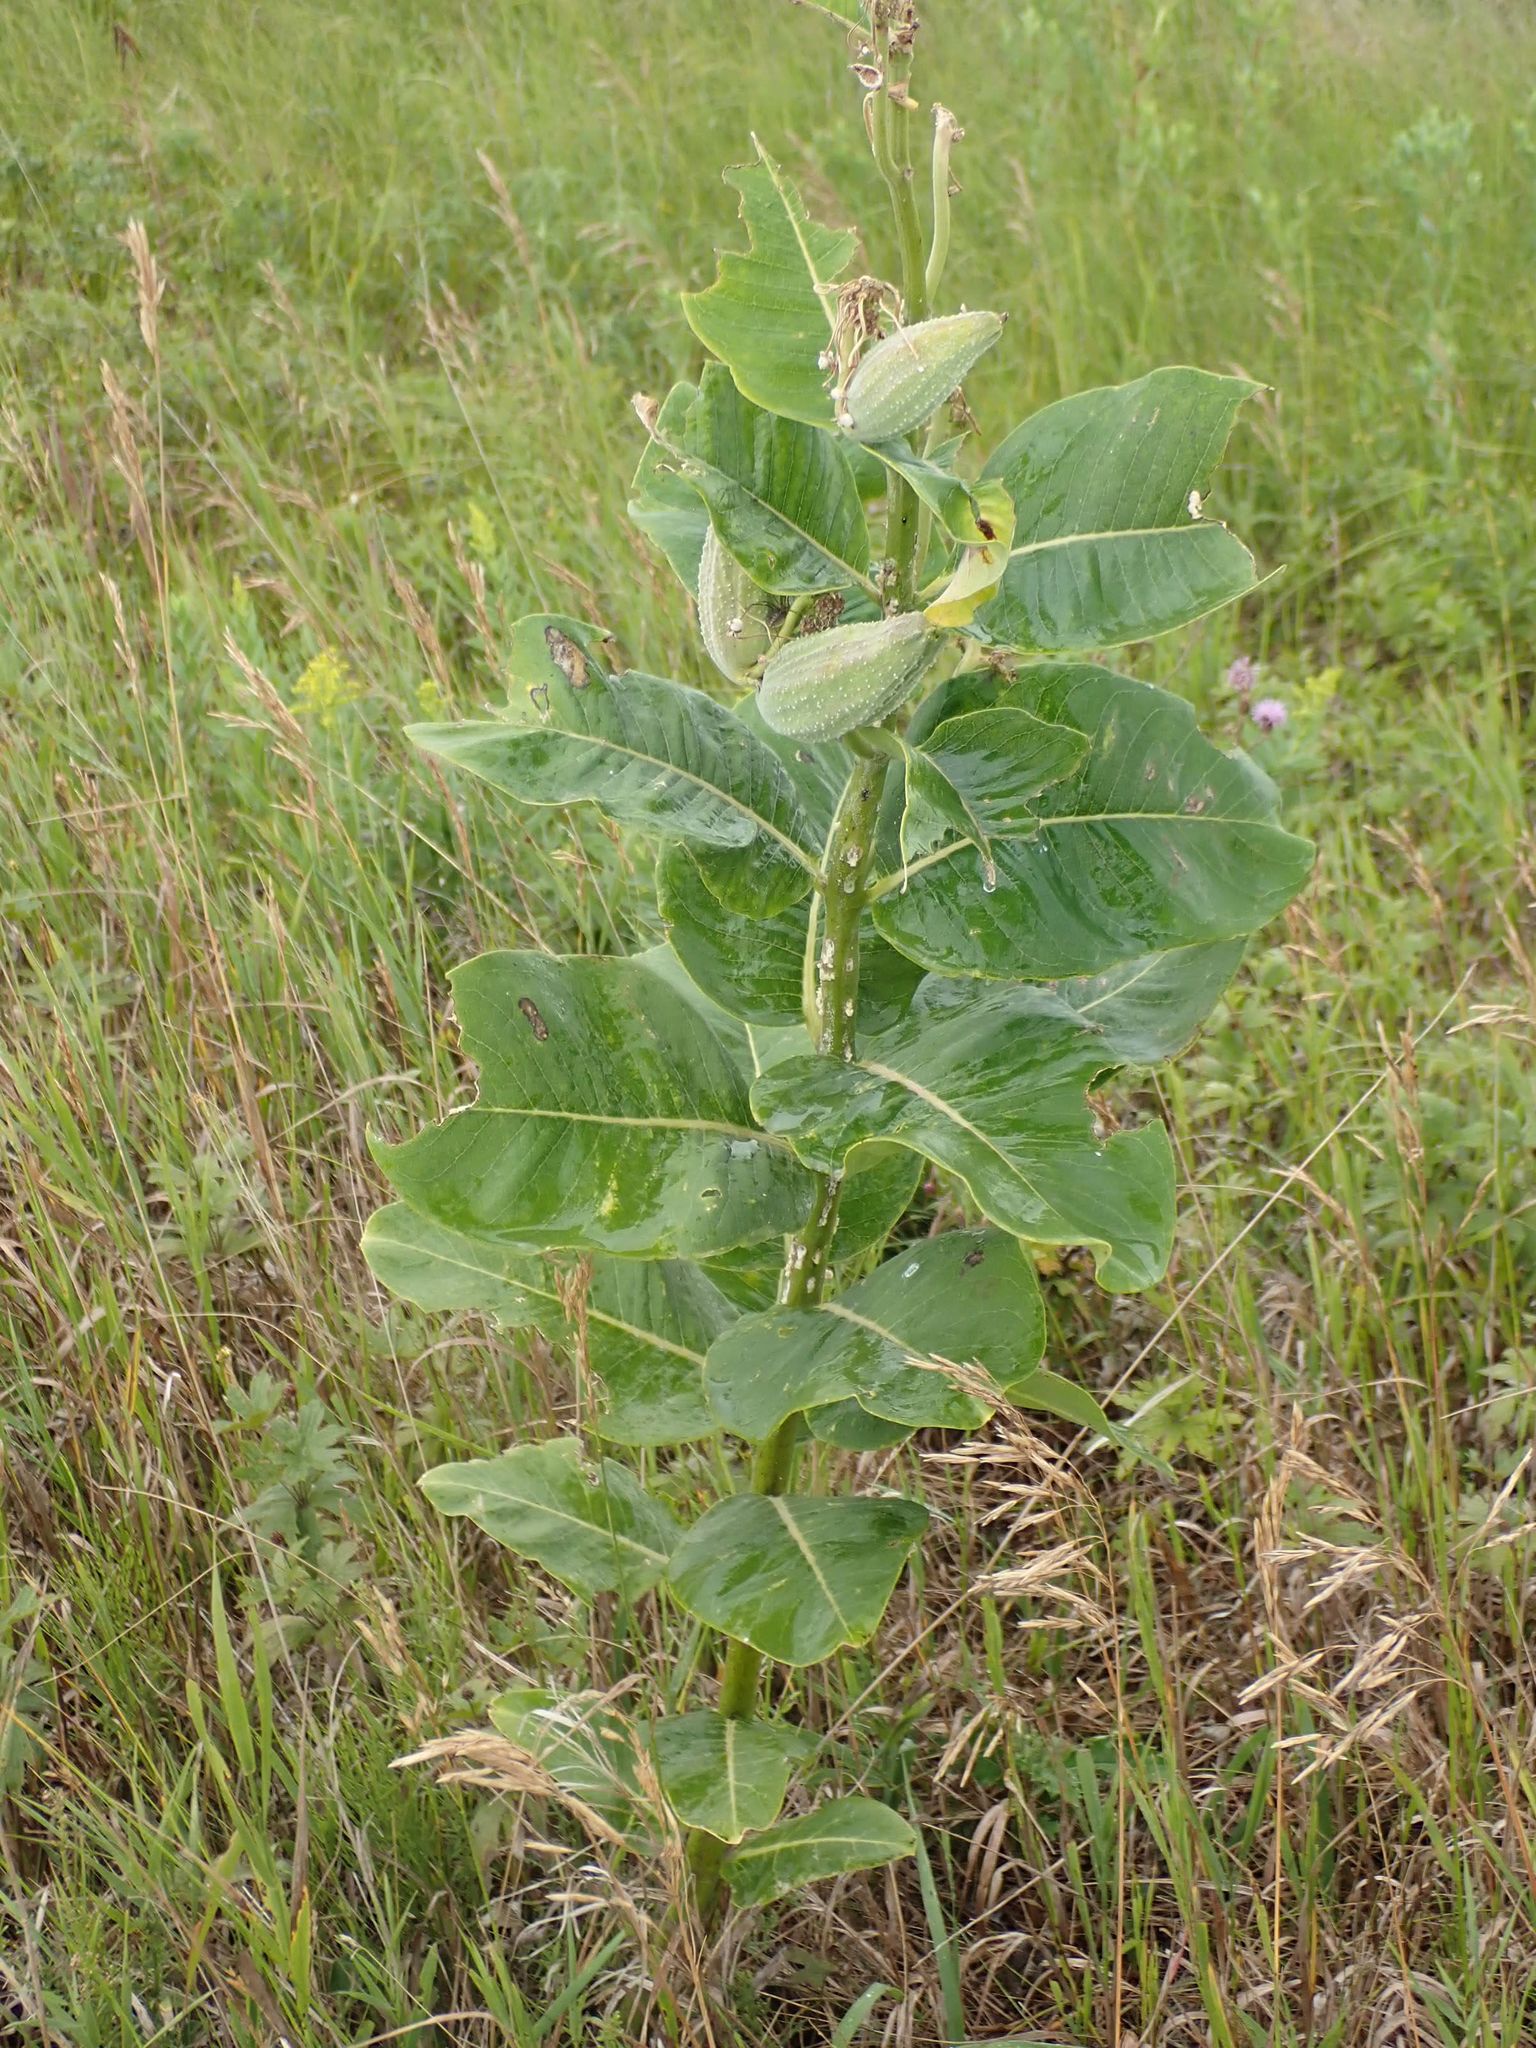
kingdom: Plantae
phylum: Tracheophyta
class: Magnoliopsida
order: Gentianales
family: Apocynaceae
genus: Asclepias
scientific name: Asclepias syriaca
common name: Common milkweed
